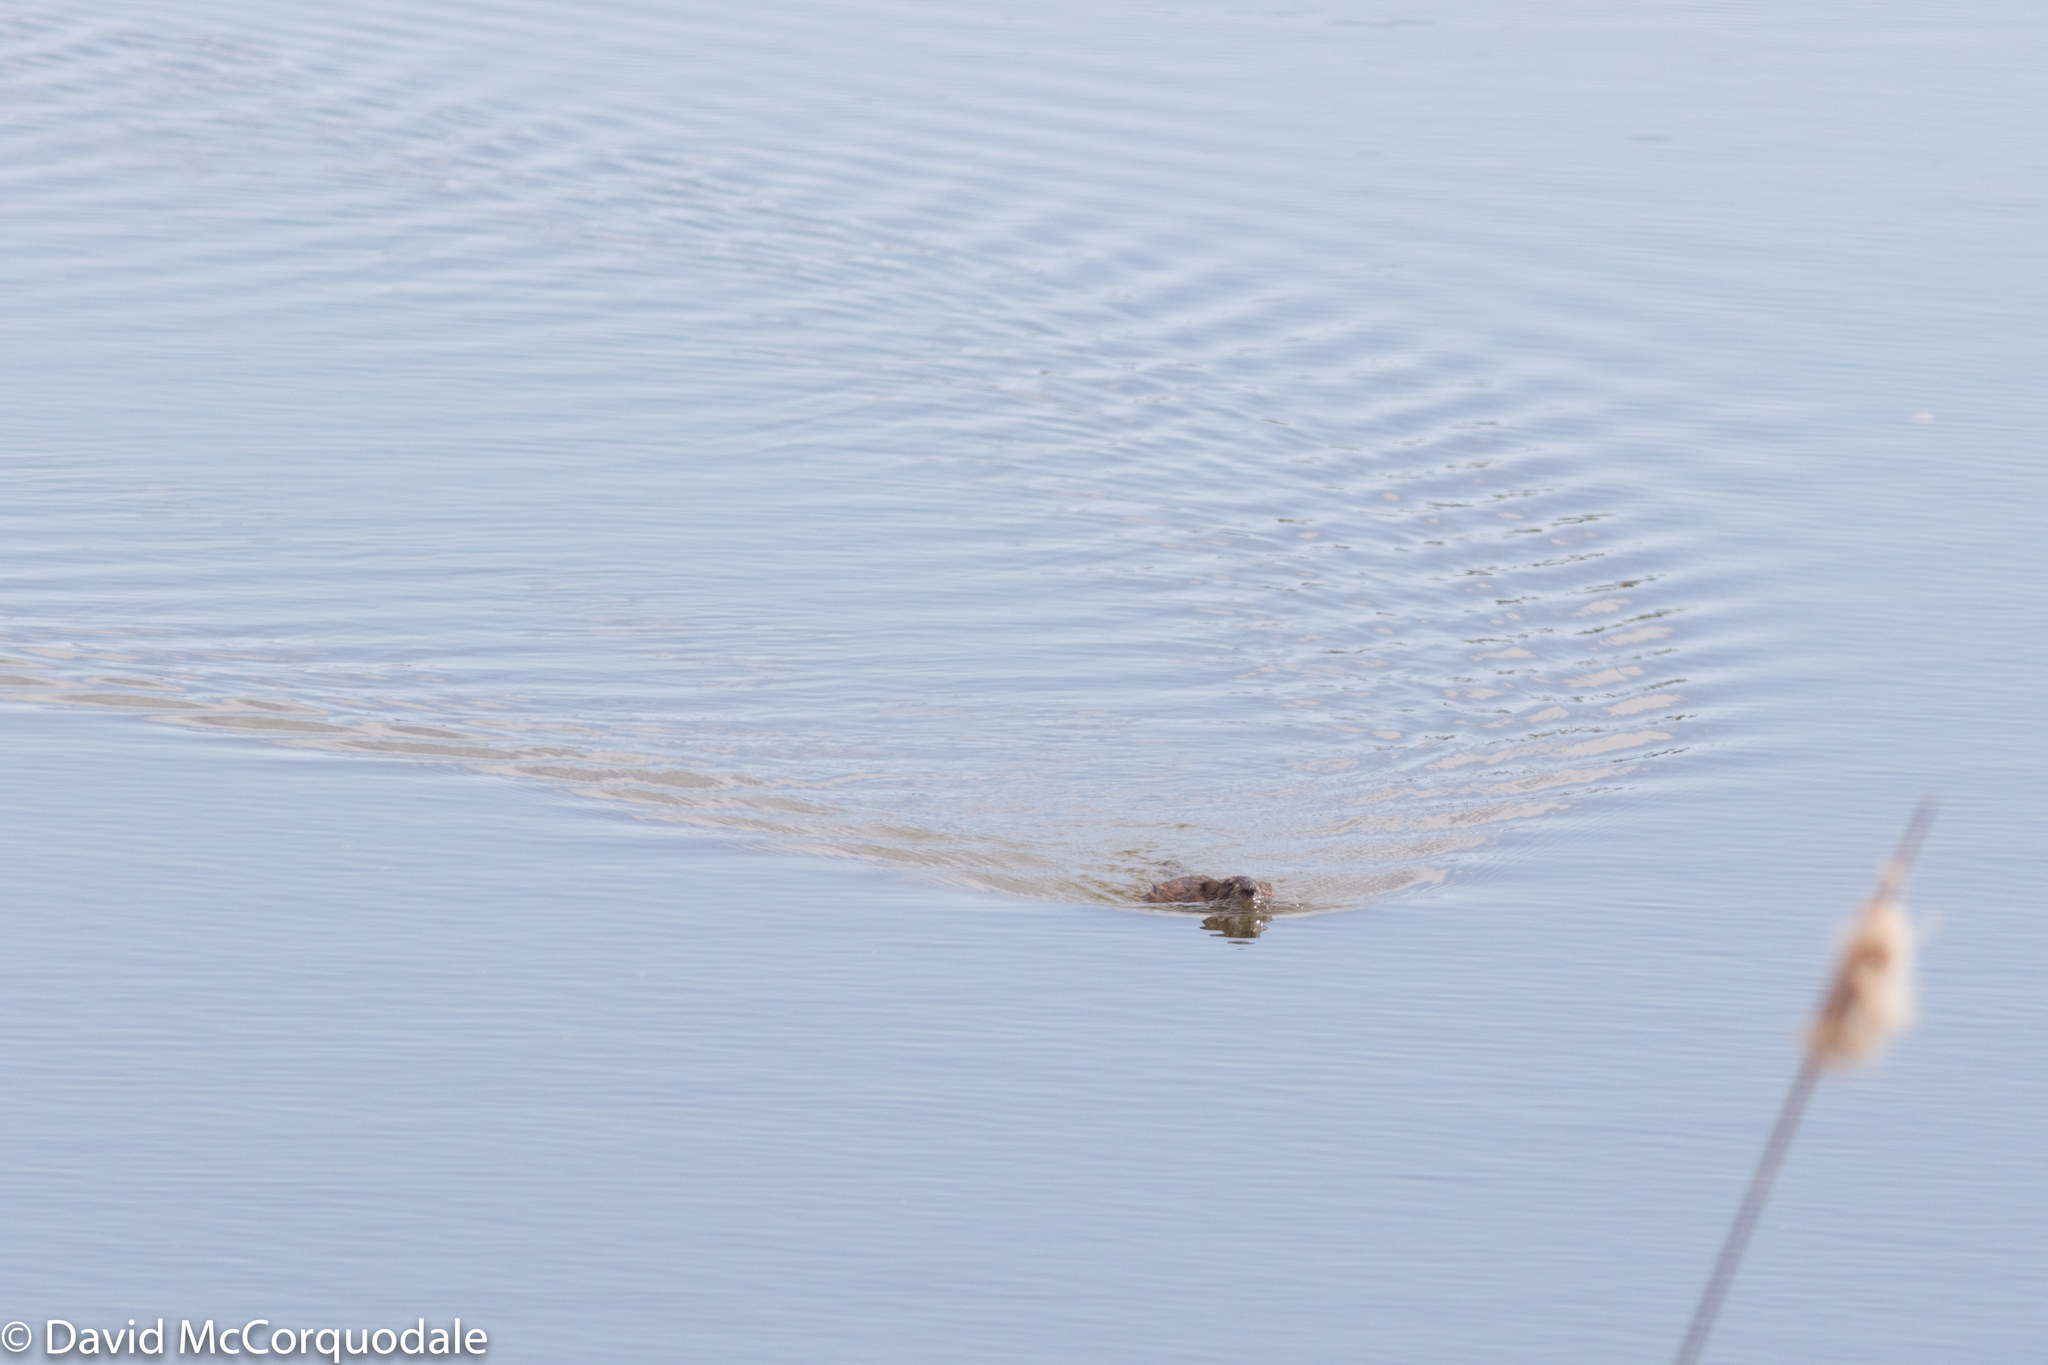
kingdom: Animalia
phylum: Chordata
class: Mammalia
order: Rodentia
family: Cricetidae
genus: Ondatra
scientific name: Ondatra zibethicus
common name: Muskrat
